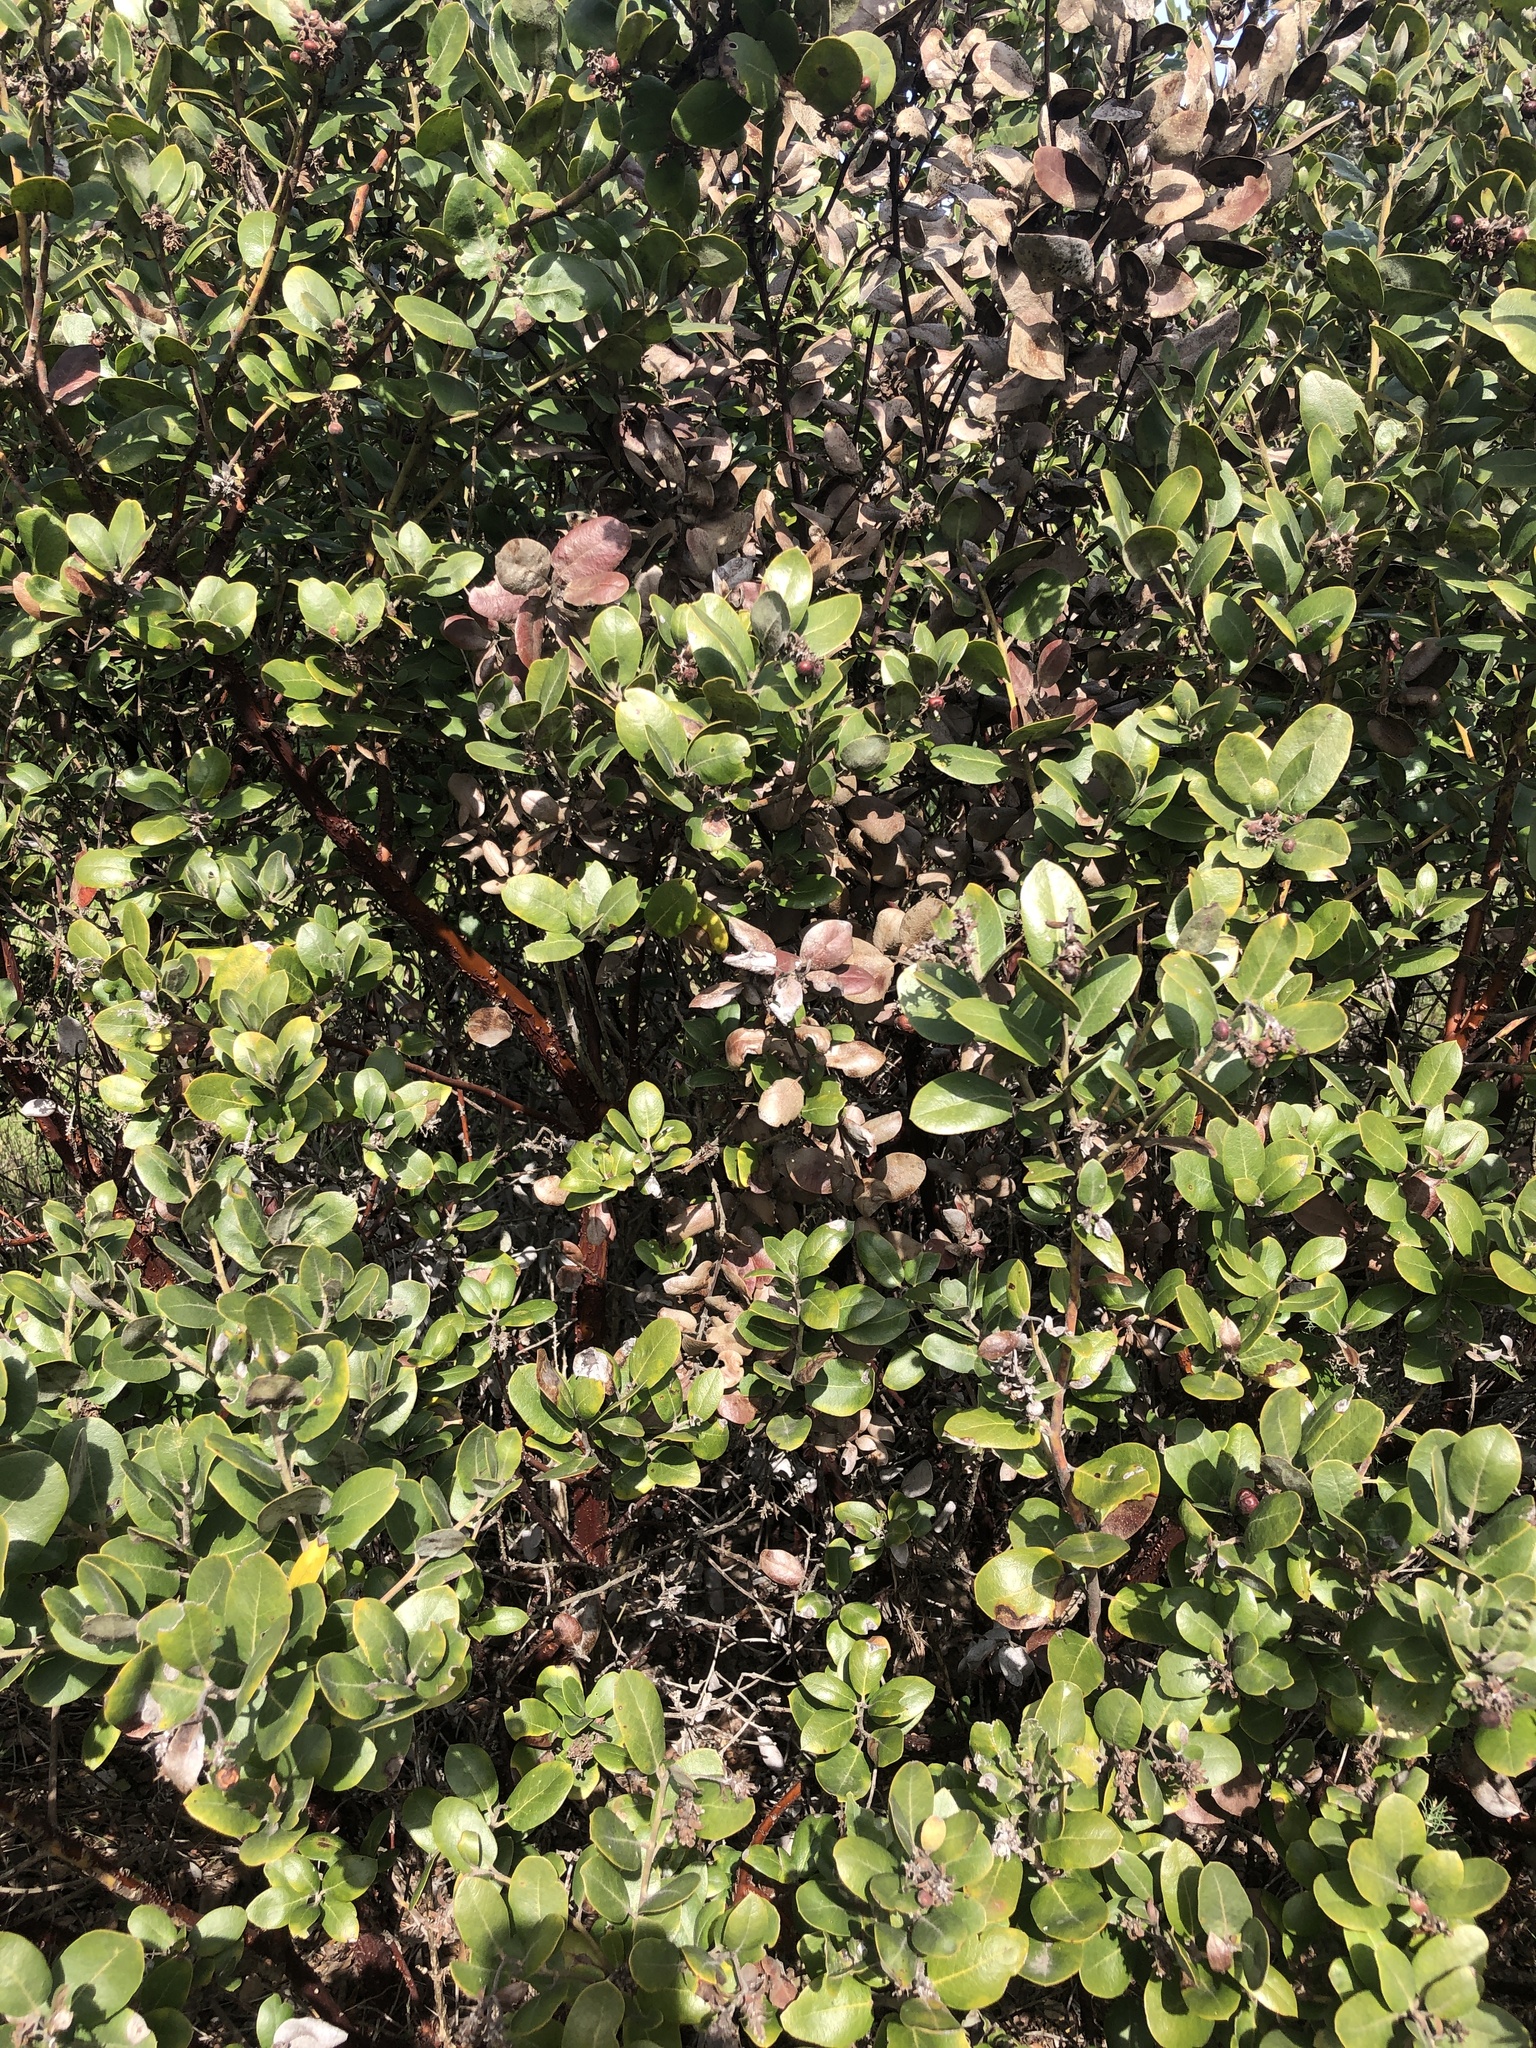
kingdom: Plantae
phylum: Tracheophyta
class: Magnoliopsida
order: Ericales
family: Ericaceae
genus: Arctostaphylos
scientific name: Arctostaphylos tomentosa
